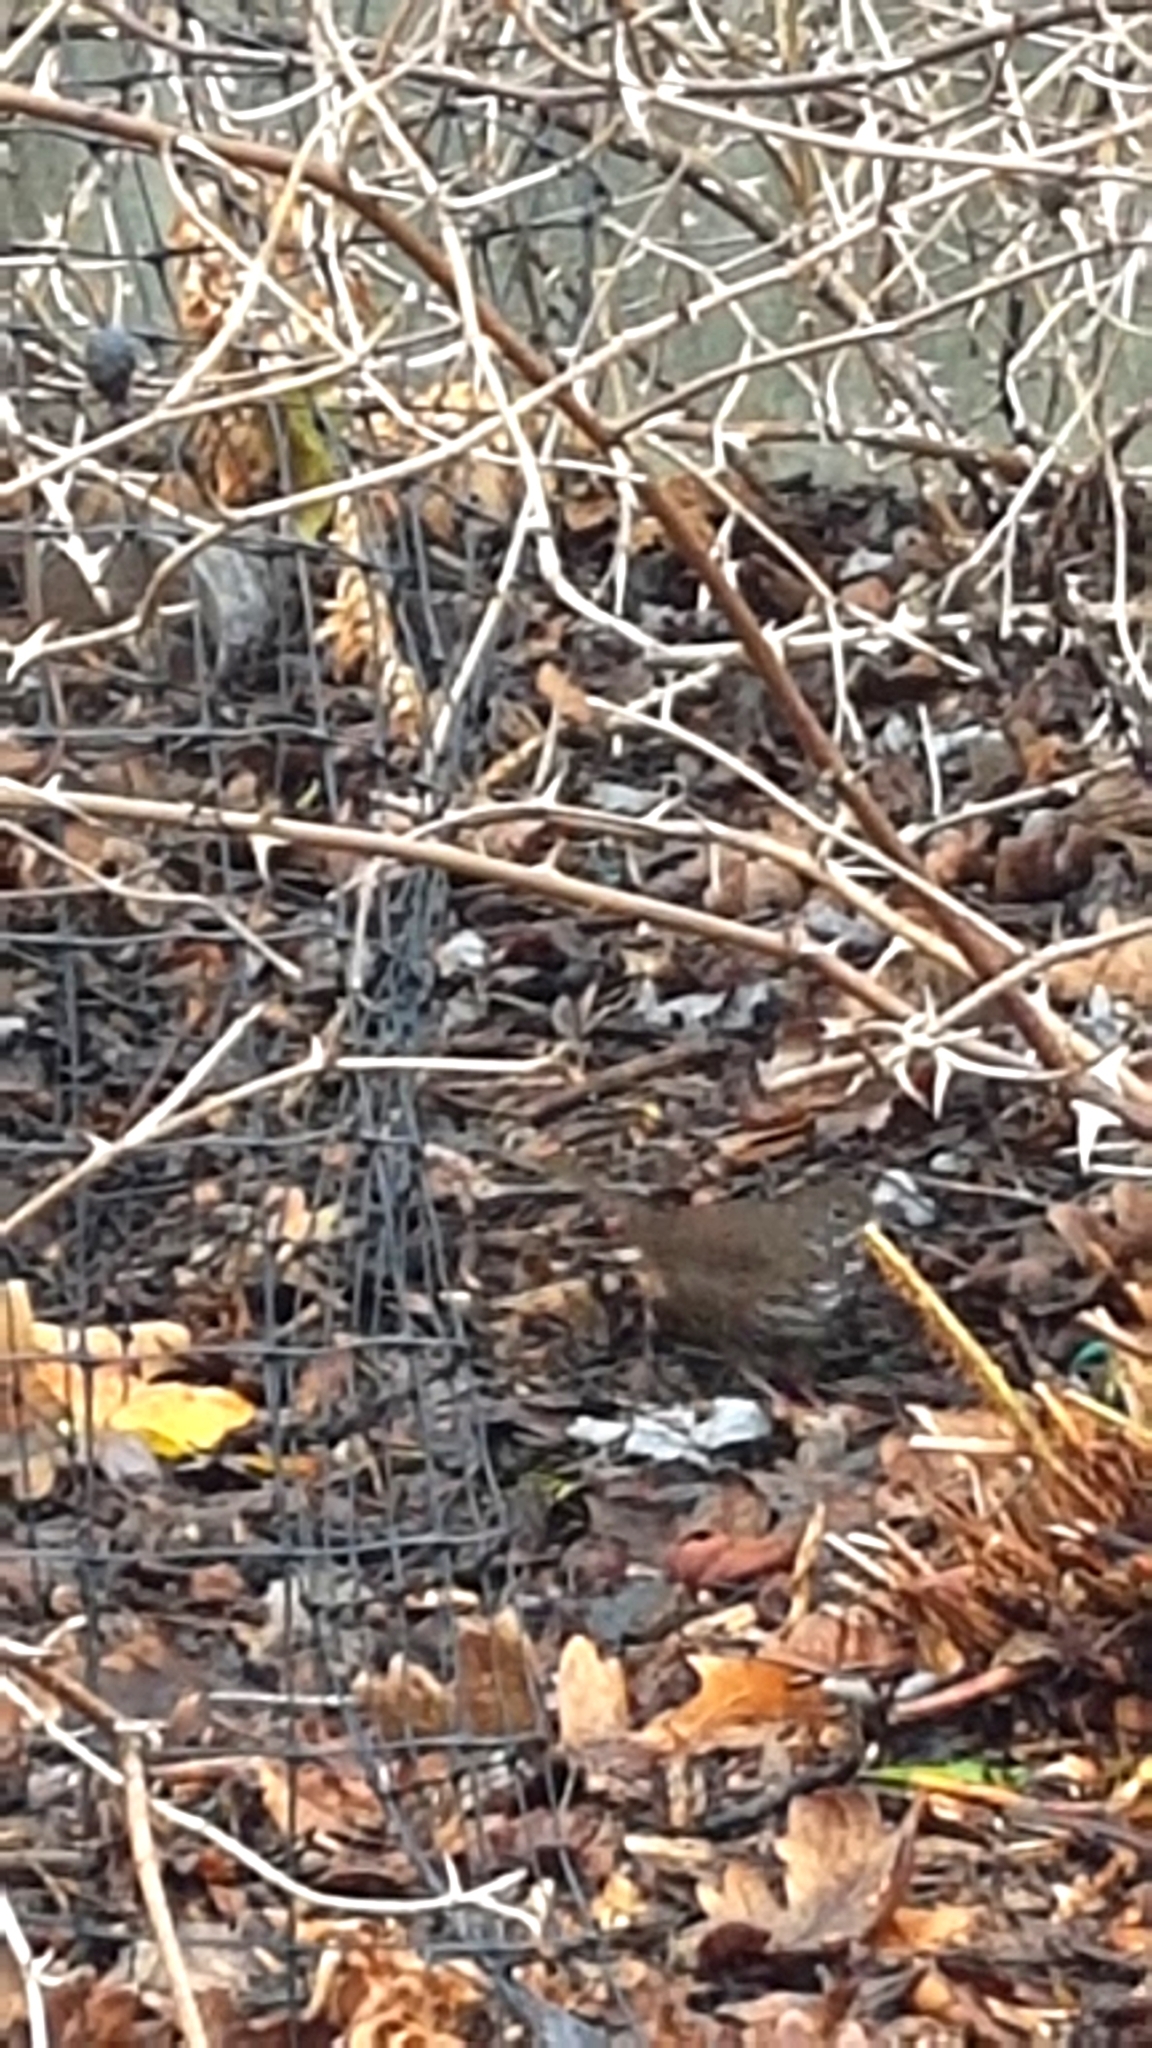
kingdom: Animalia
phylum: Chordata
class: Aves
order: Passeriformes
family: Passerellidae
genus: Passerella
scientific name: Passerella iliaca
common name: Fox sparrow
